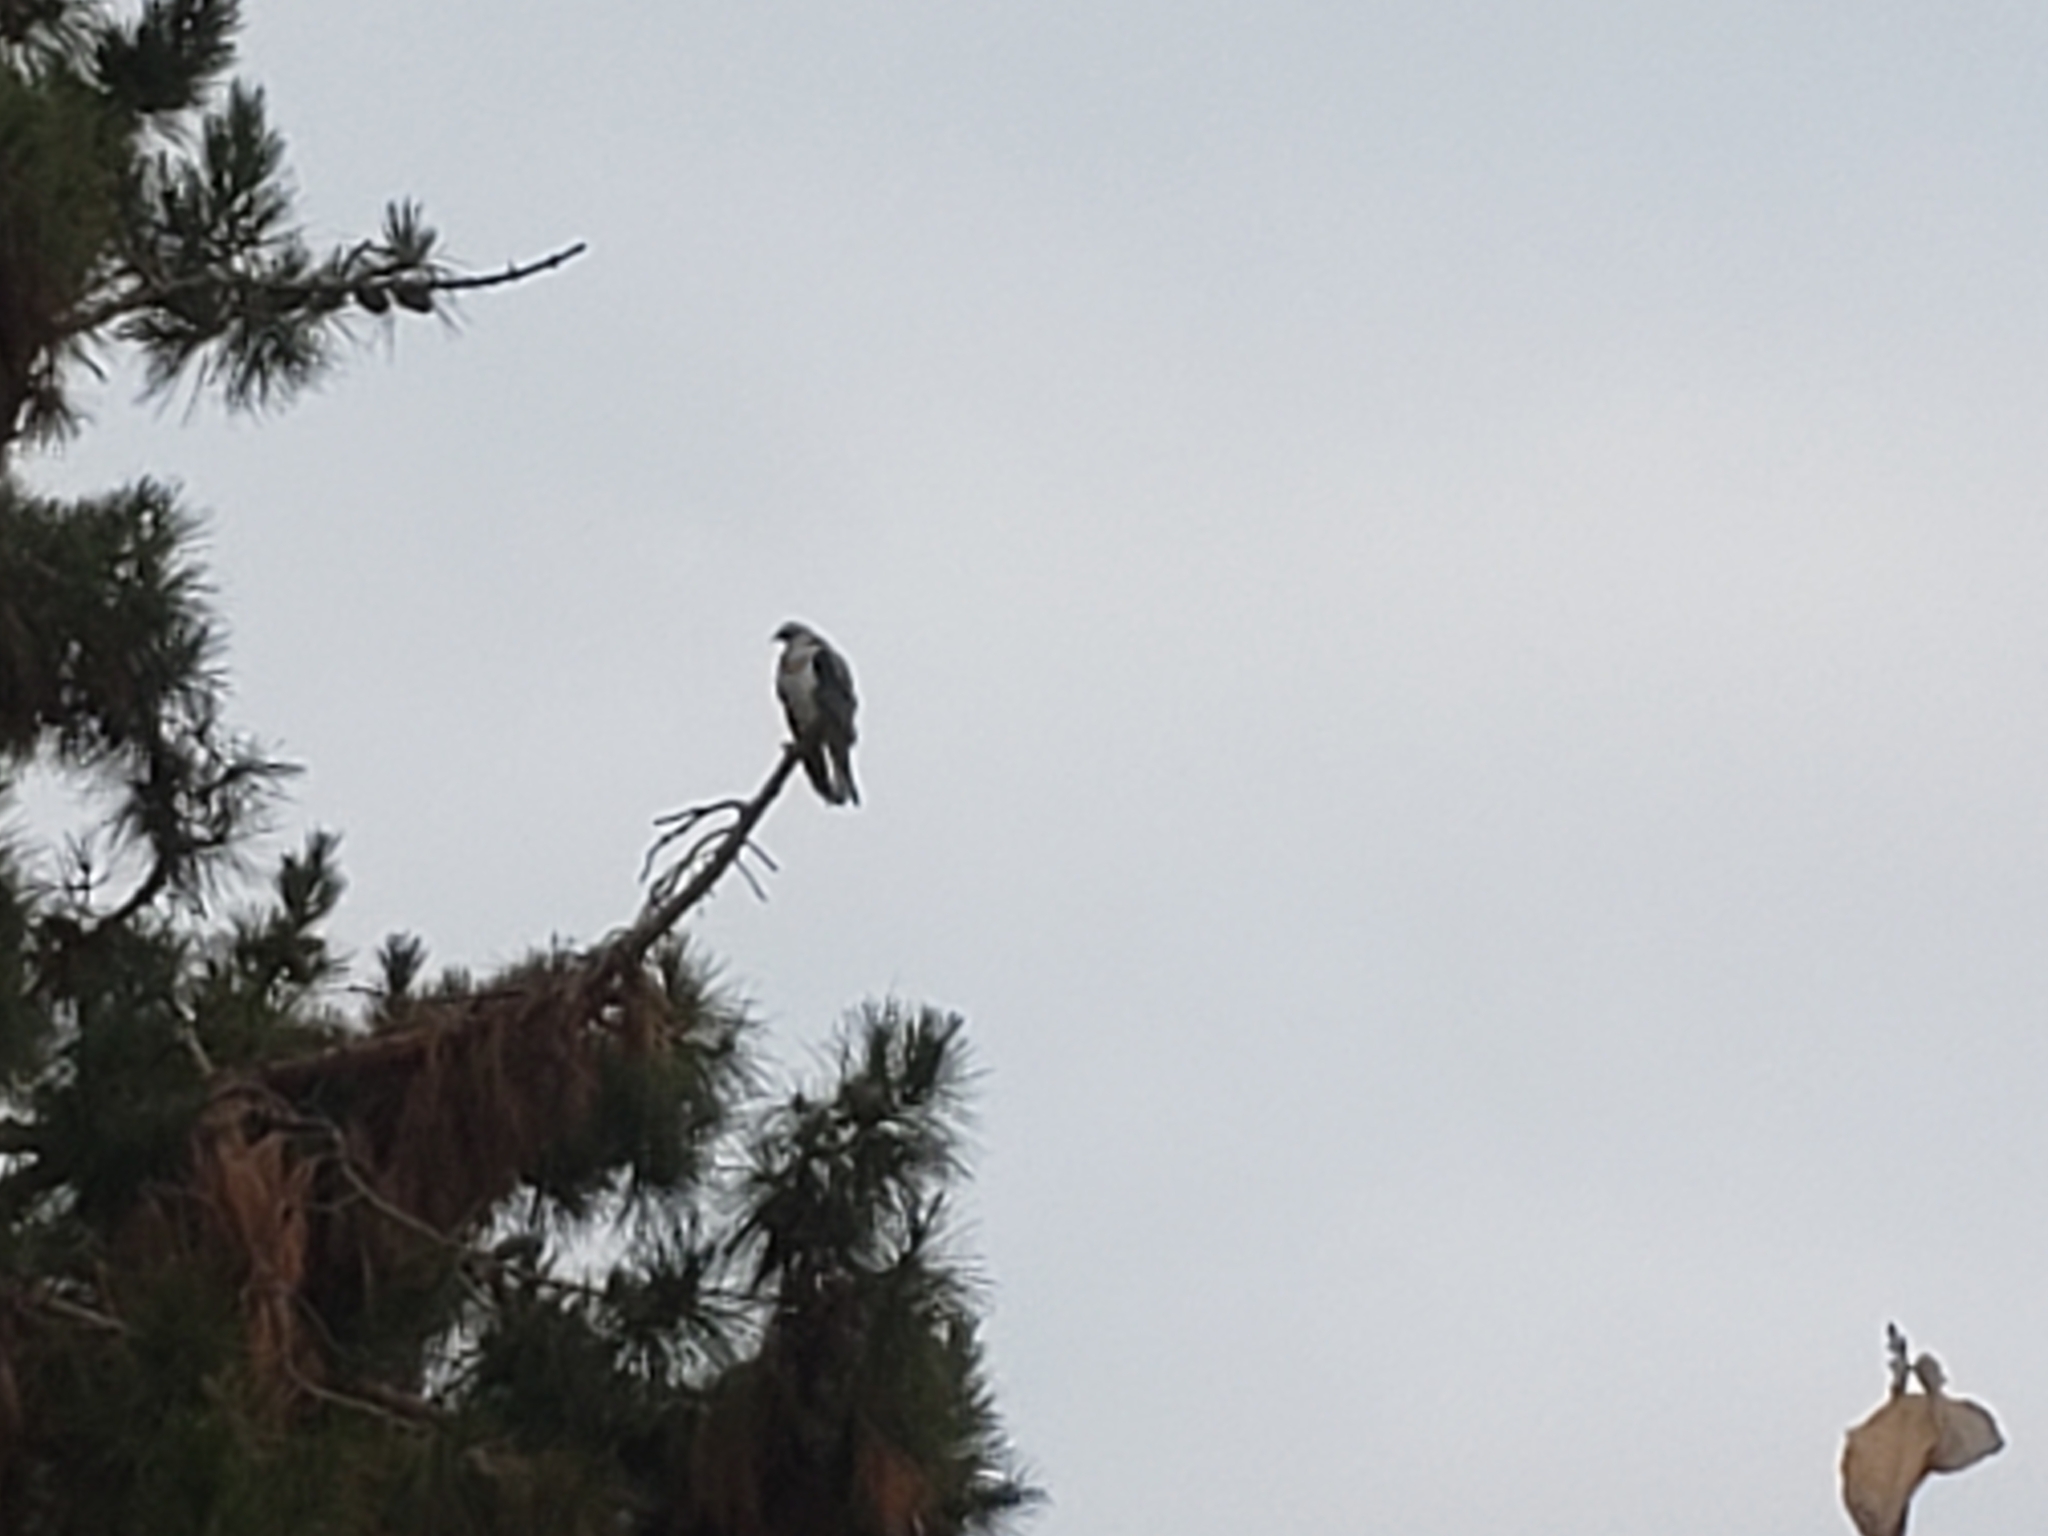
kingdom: Animalia
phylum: Chordata
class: Aves
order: Accipitriformes
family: Accipitridae
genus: Elanus
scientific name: Elanus leucurus
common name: White-tailed kite
